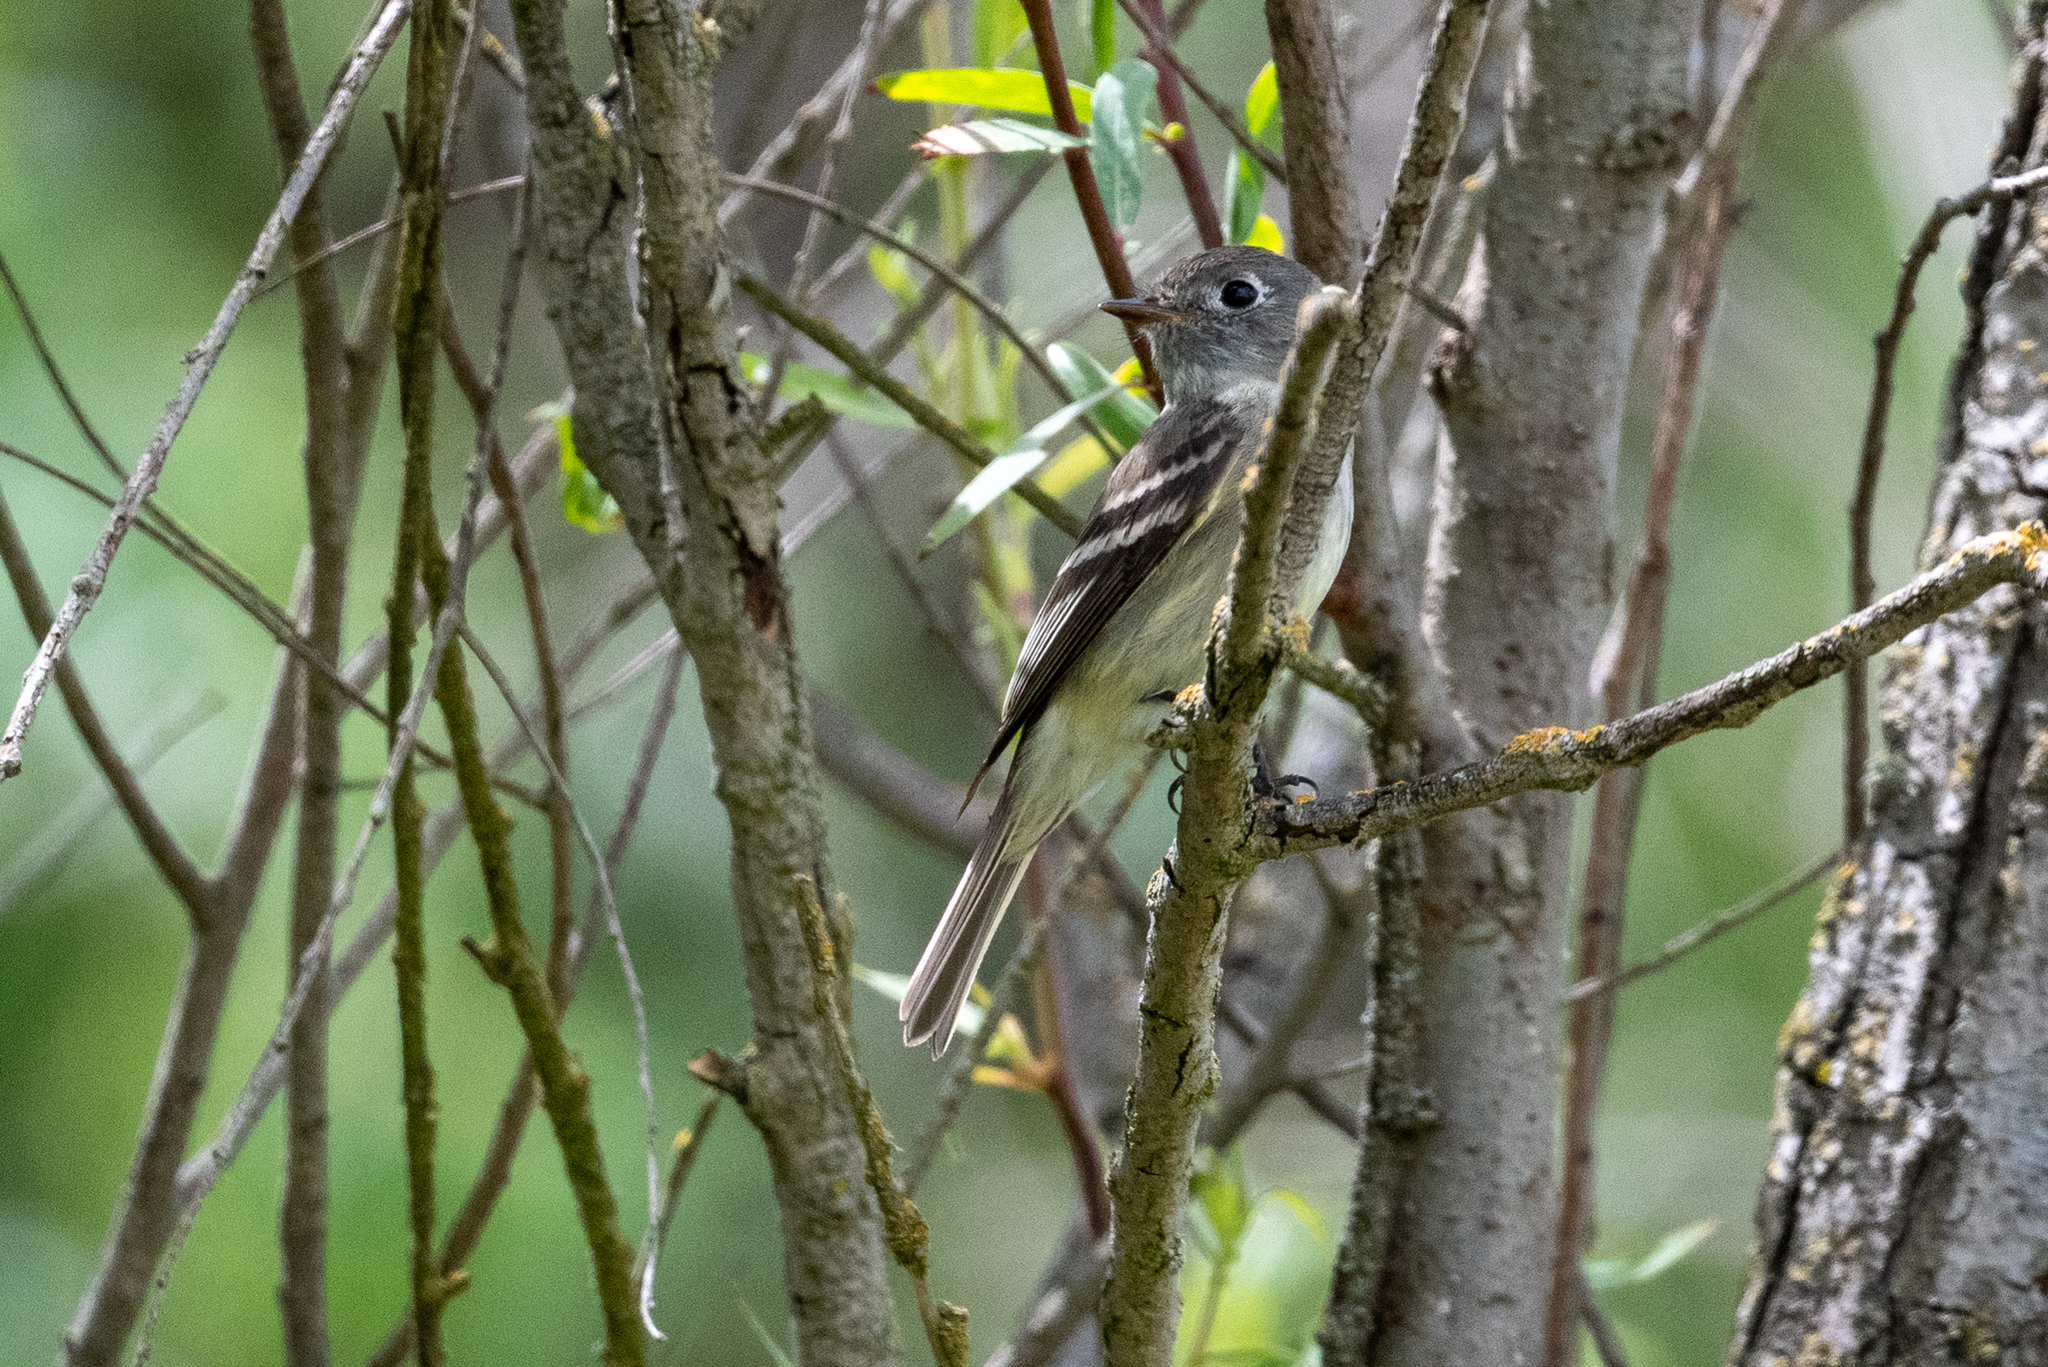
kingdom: Animalia
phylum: Chordata
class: Aves
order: Passeriformes
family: Tyrannidae
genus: Empidonax
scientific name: Empidonax hammondii
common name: Hammond's flycatcher
